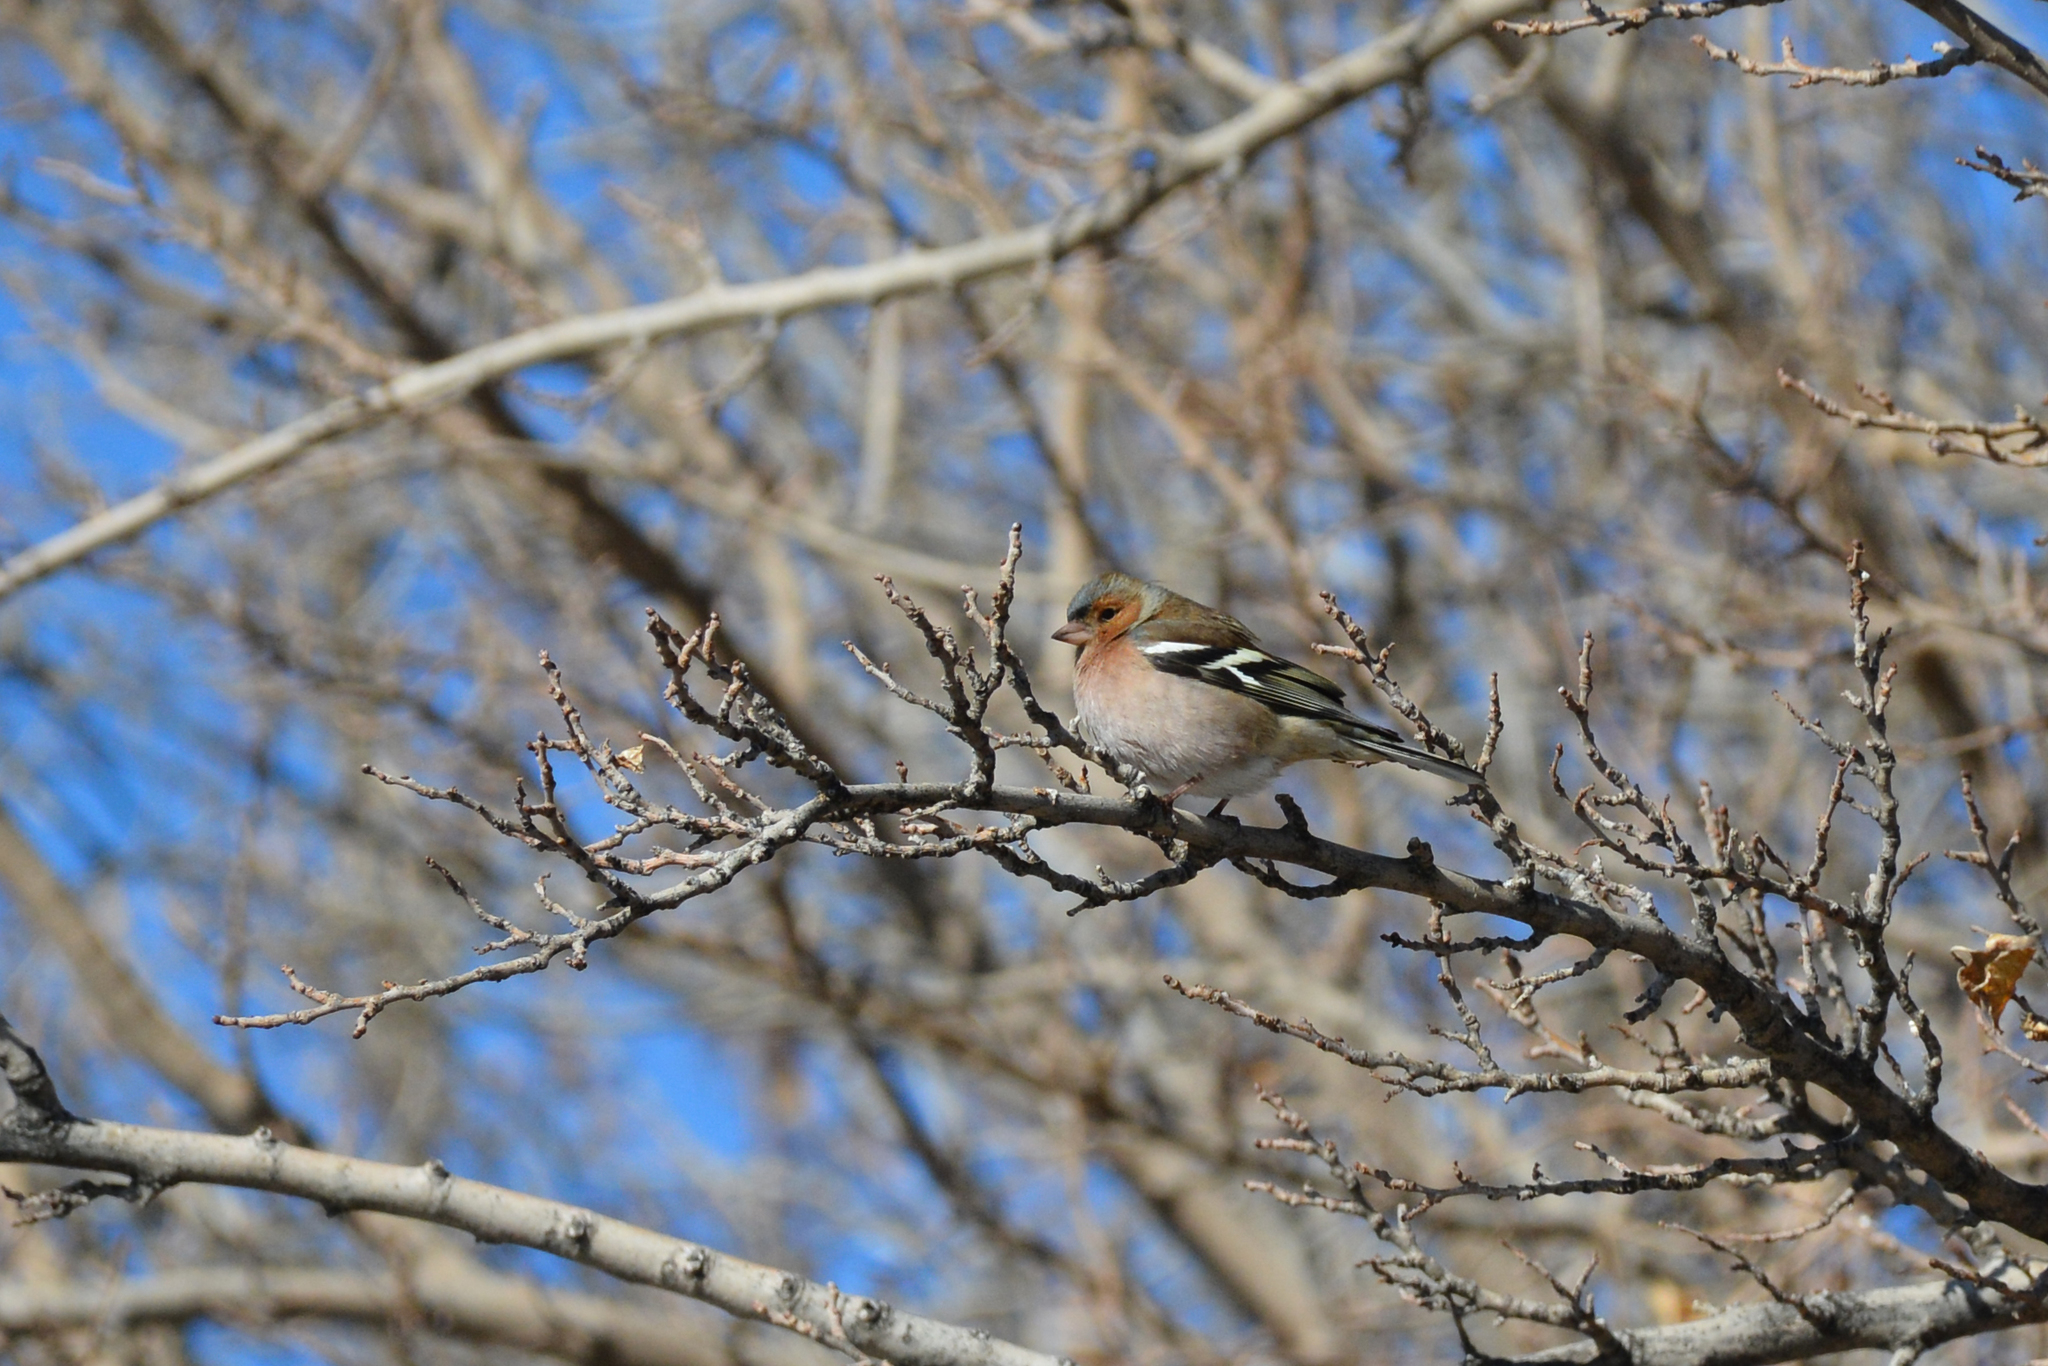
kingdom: Animalia
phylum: Chordata
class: Aves
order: Passeriformes
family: Fringillidae
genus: Fringilla
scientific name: Fringilla coelebs
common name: Common chaffinch
